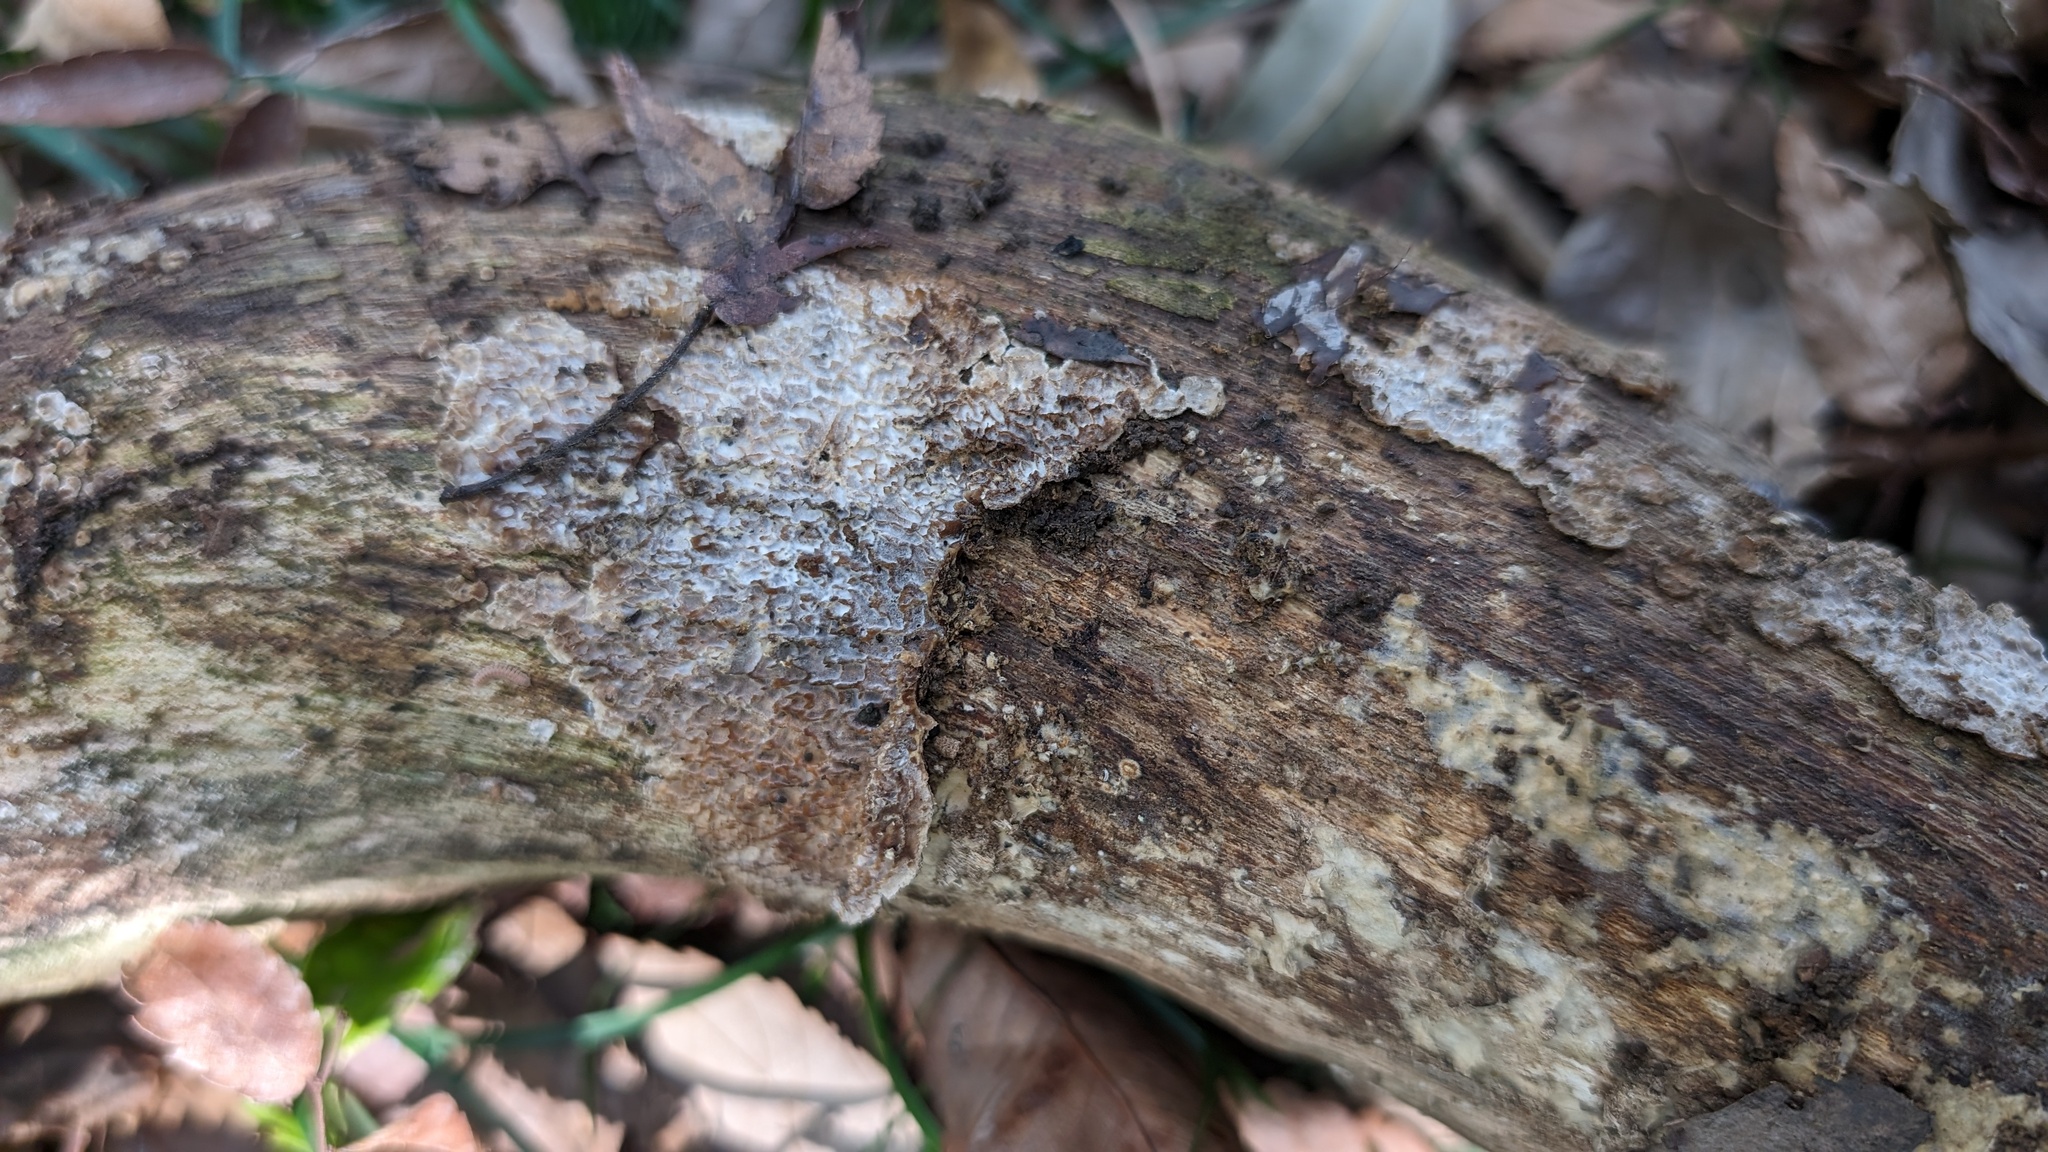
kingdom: Fungi
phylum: Basidiomycota
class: Agaricomycetes
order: Polyporales
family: Polyporaceae
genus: Lopharia
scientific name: Lopharia cinerascens
